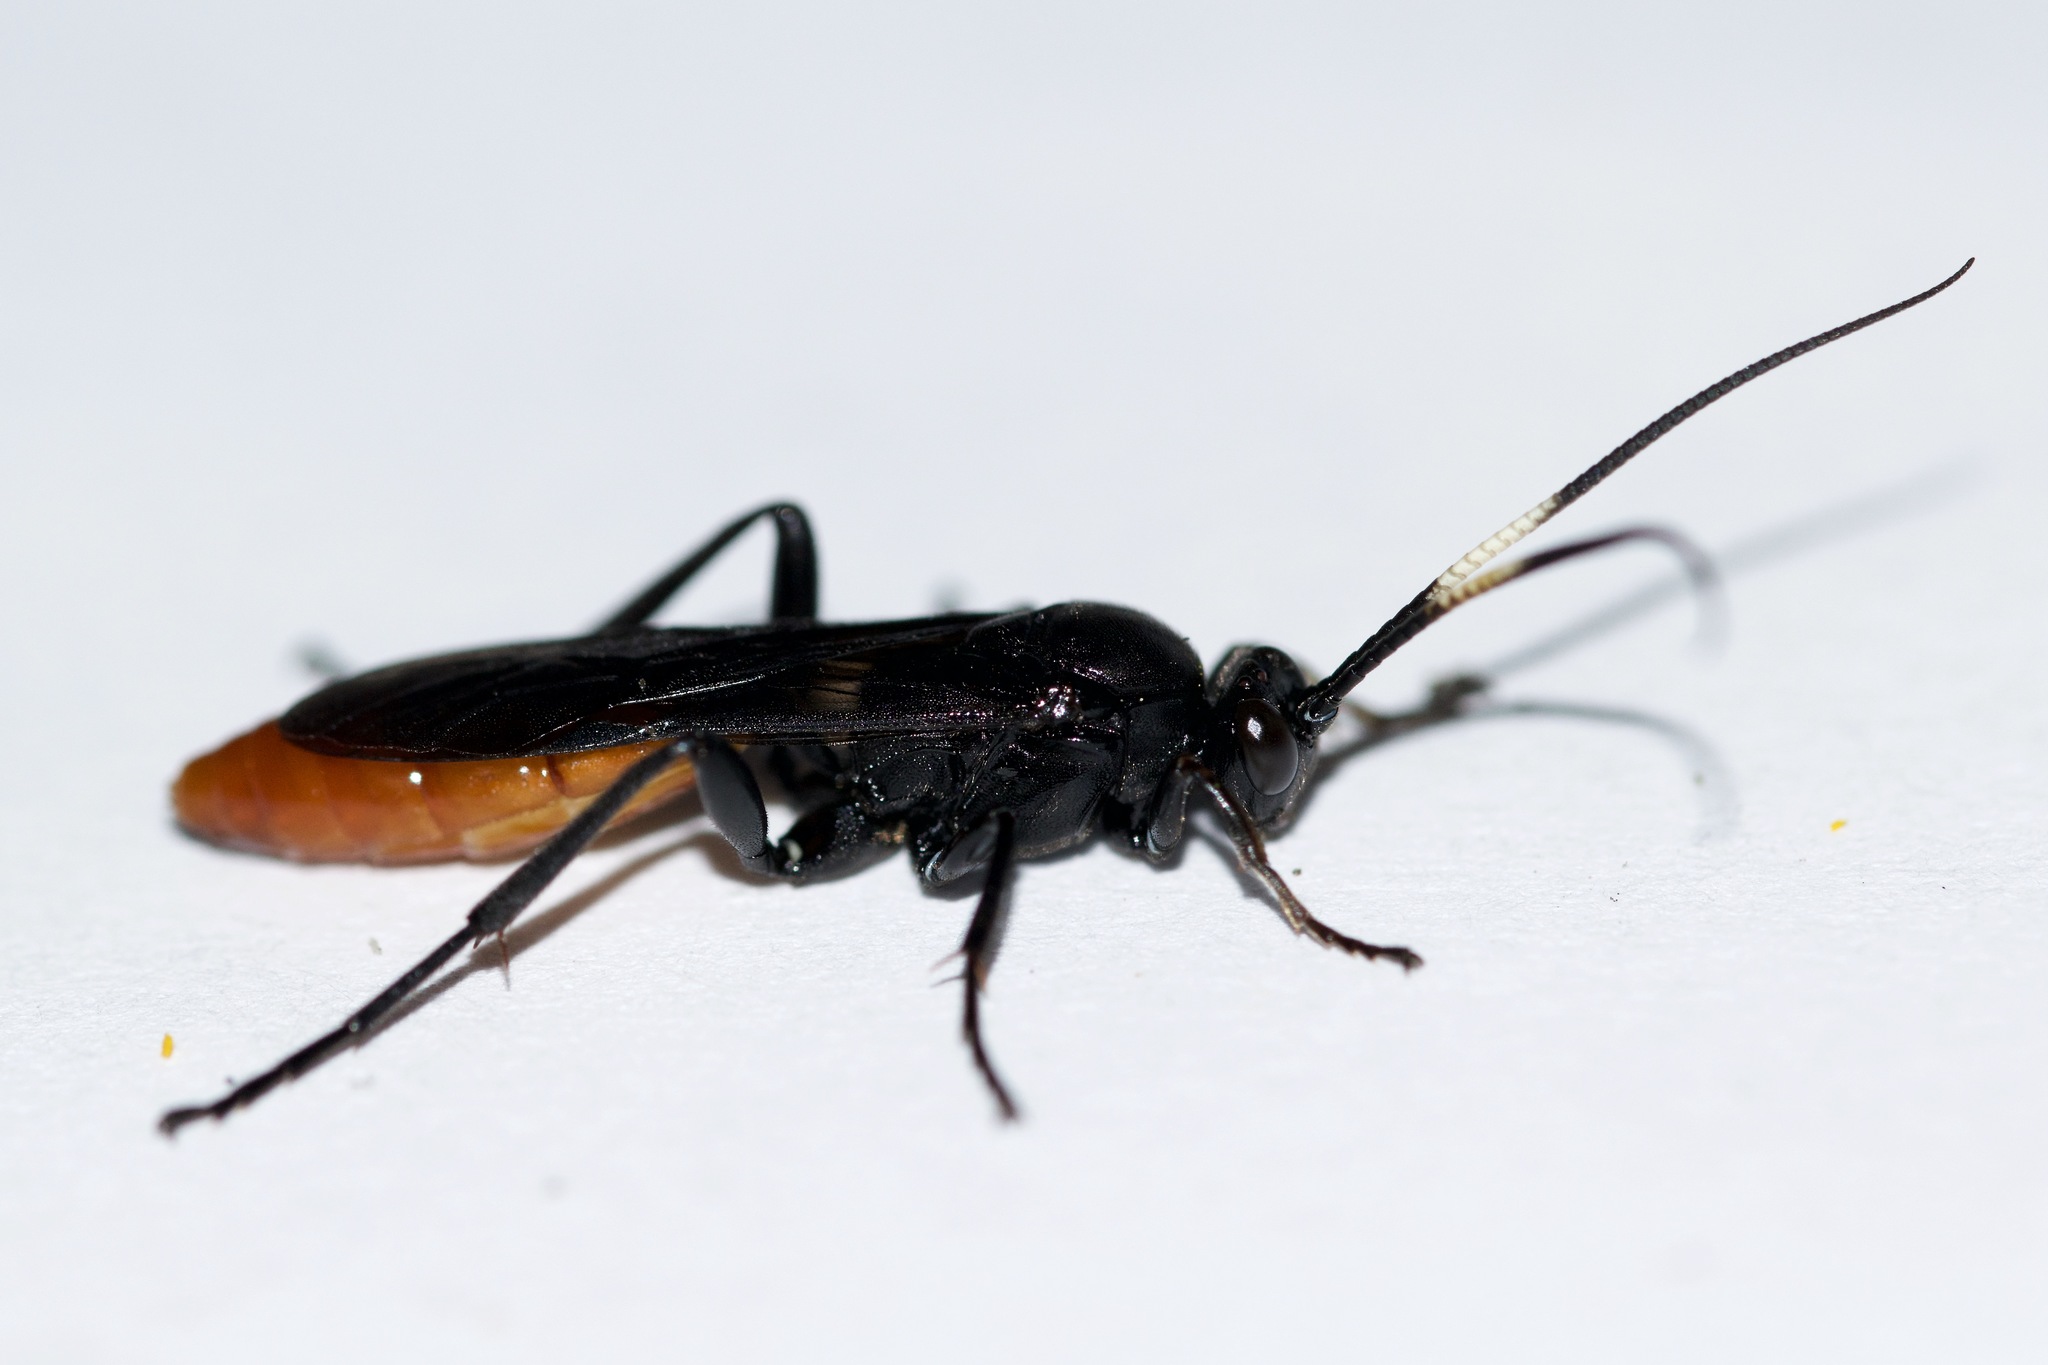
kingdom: Animalia
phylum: Arthropoda
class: Insecta
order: Hymenoptera
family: Ichneumonidae
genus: Protichneumon
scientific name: Protichneumon grandis
